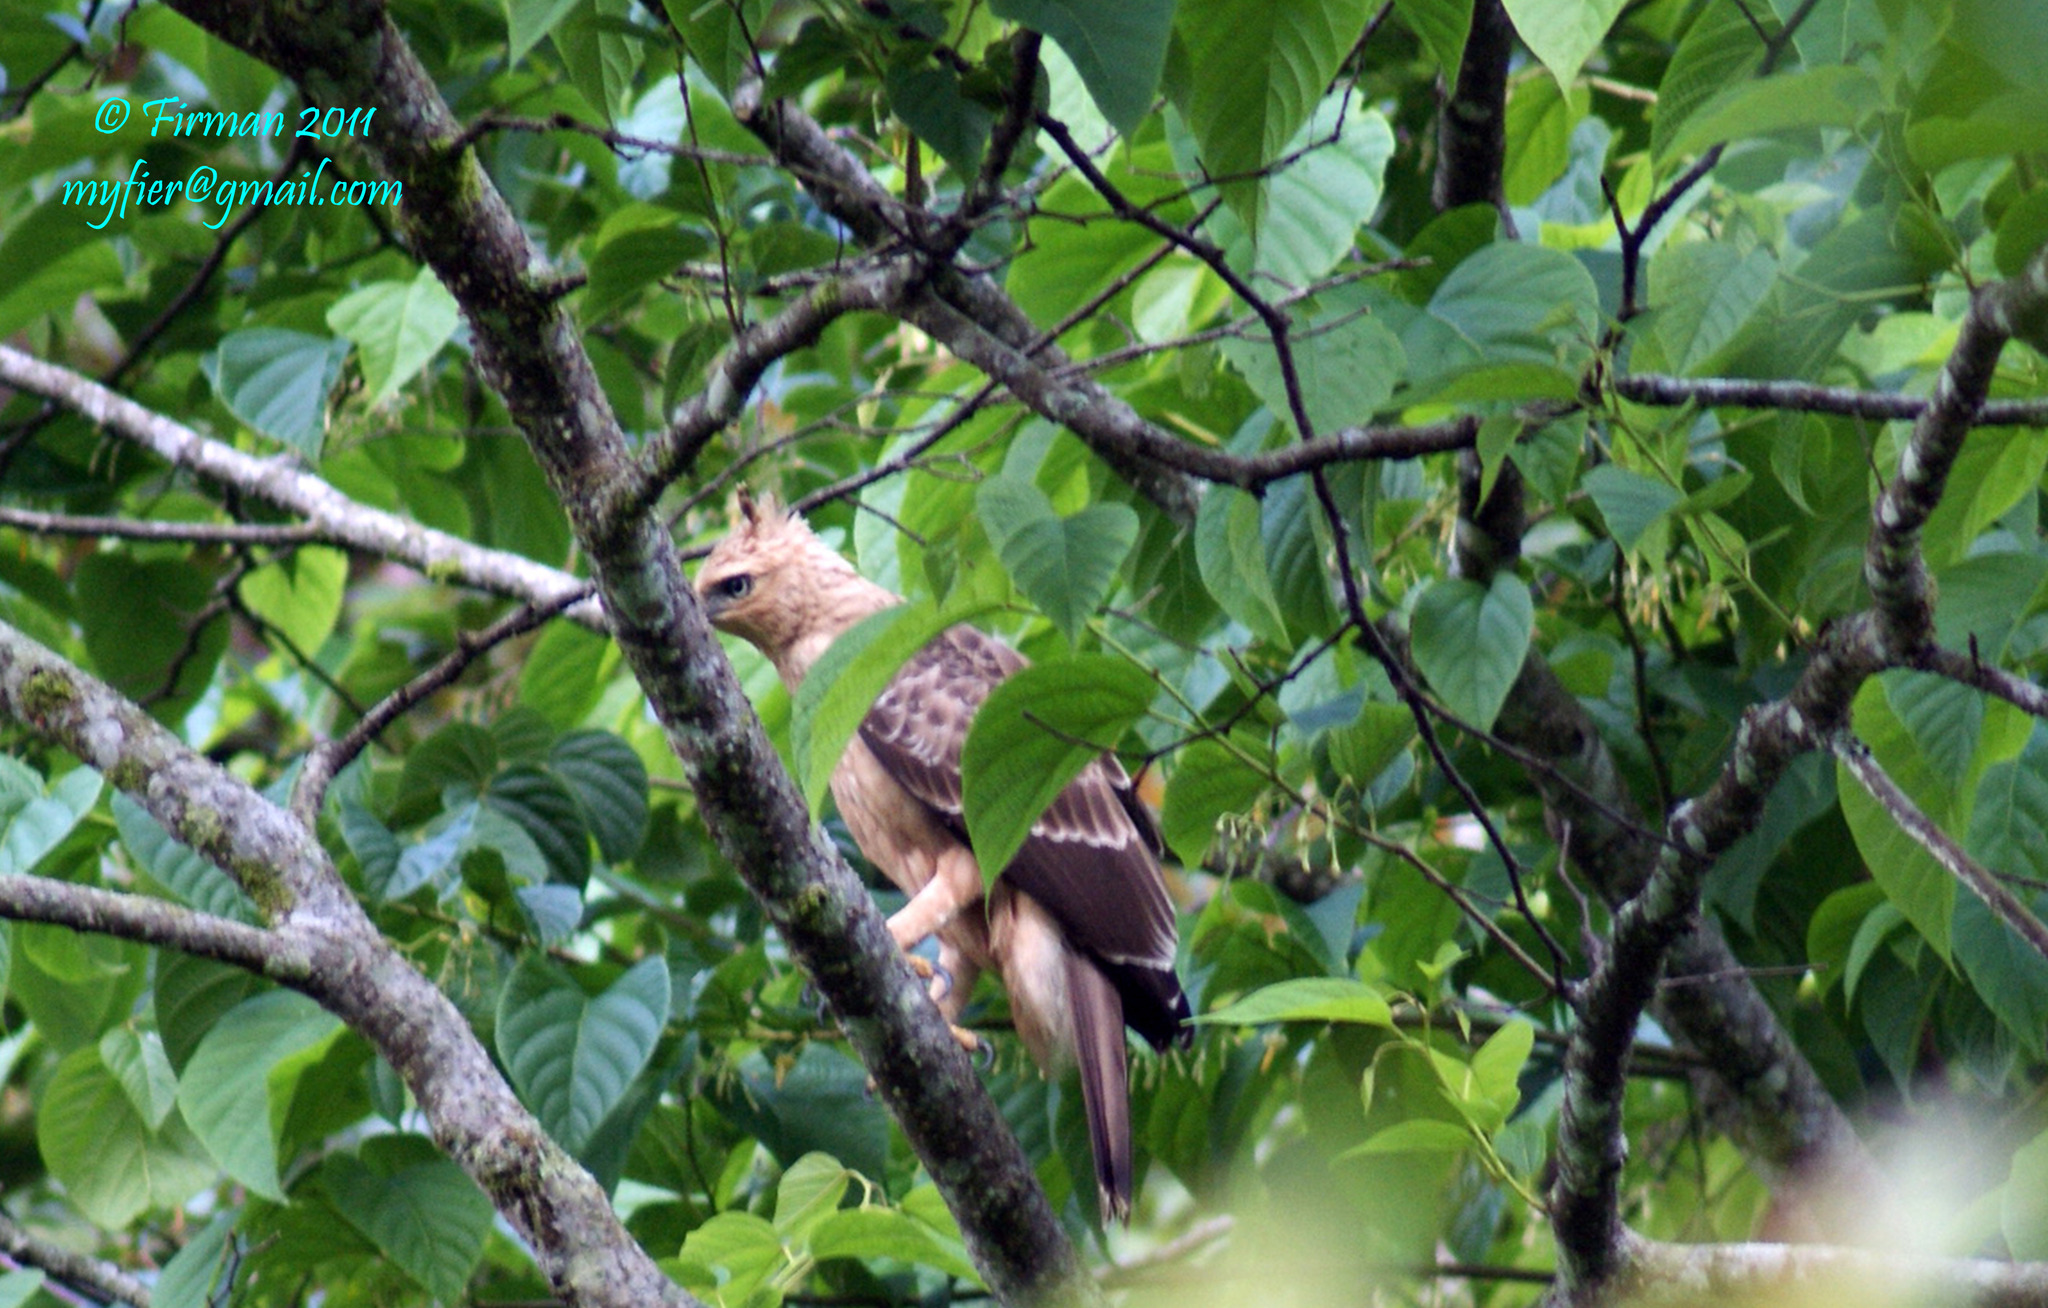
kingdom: Animalia
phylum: Chordata
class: Aves
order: Accipitriformes
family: Accipitridae
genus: Nisaetus
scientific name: Nisaetus bartelsi
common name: Javan hawk-eagle
